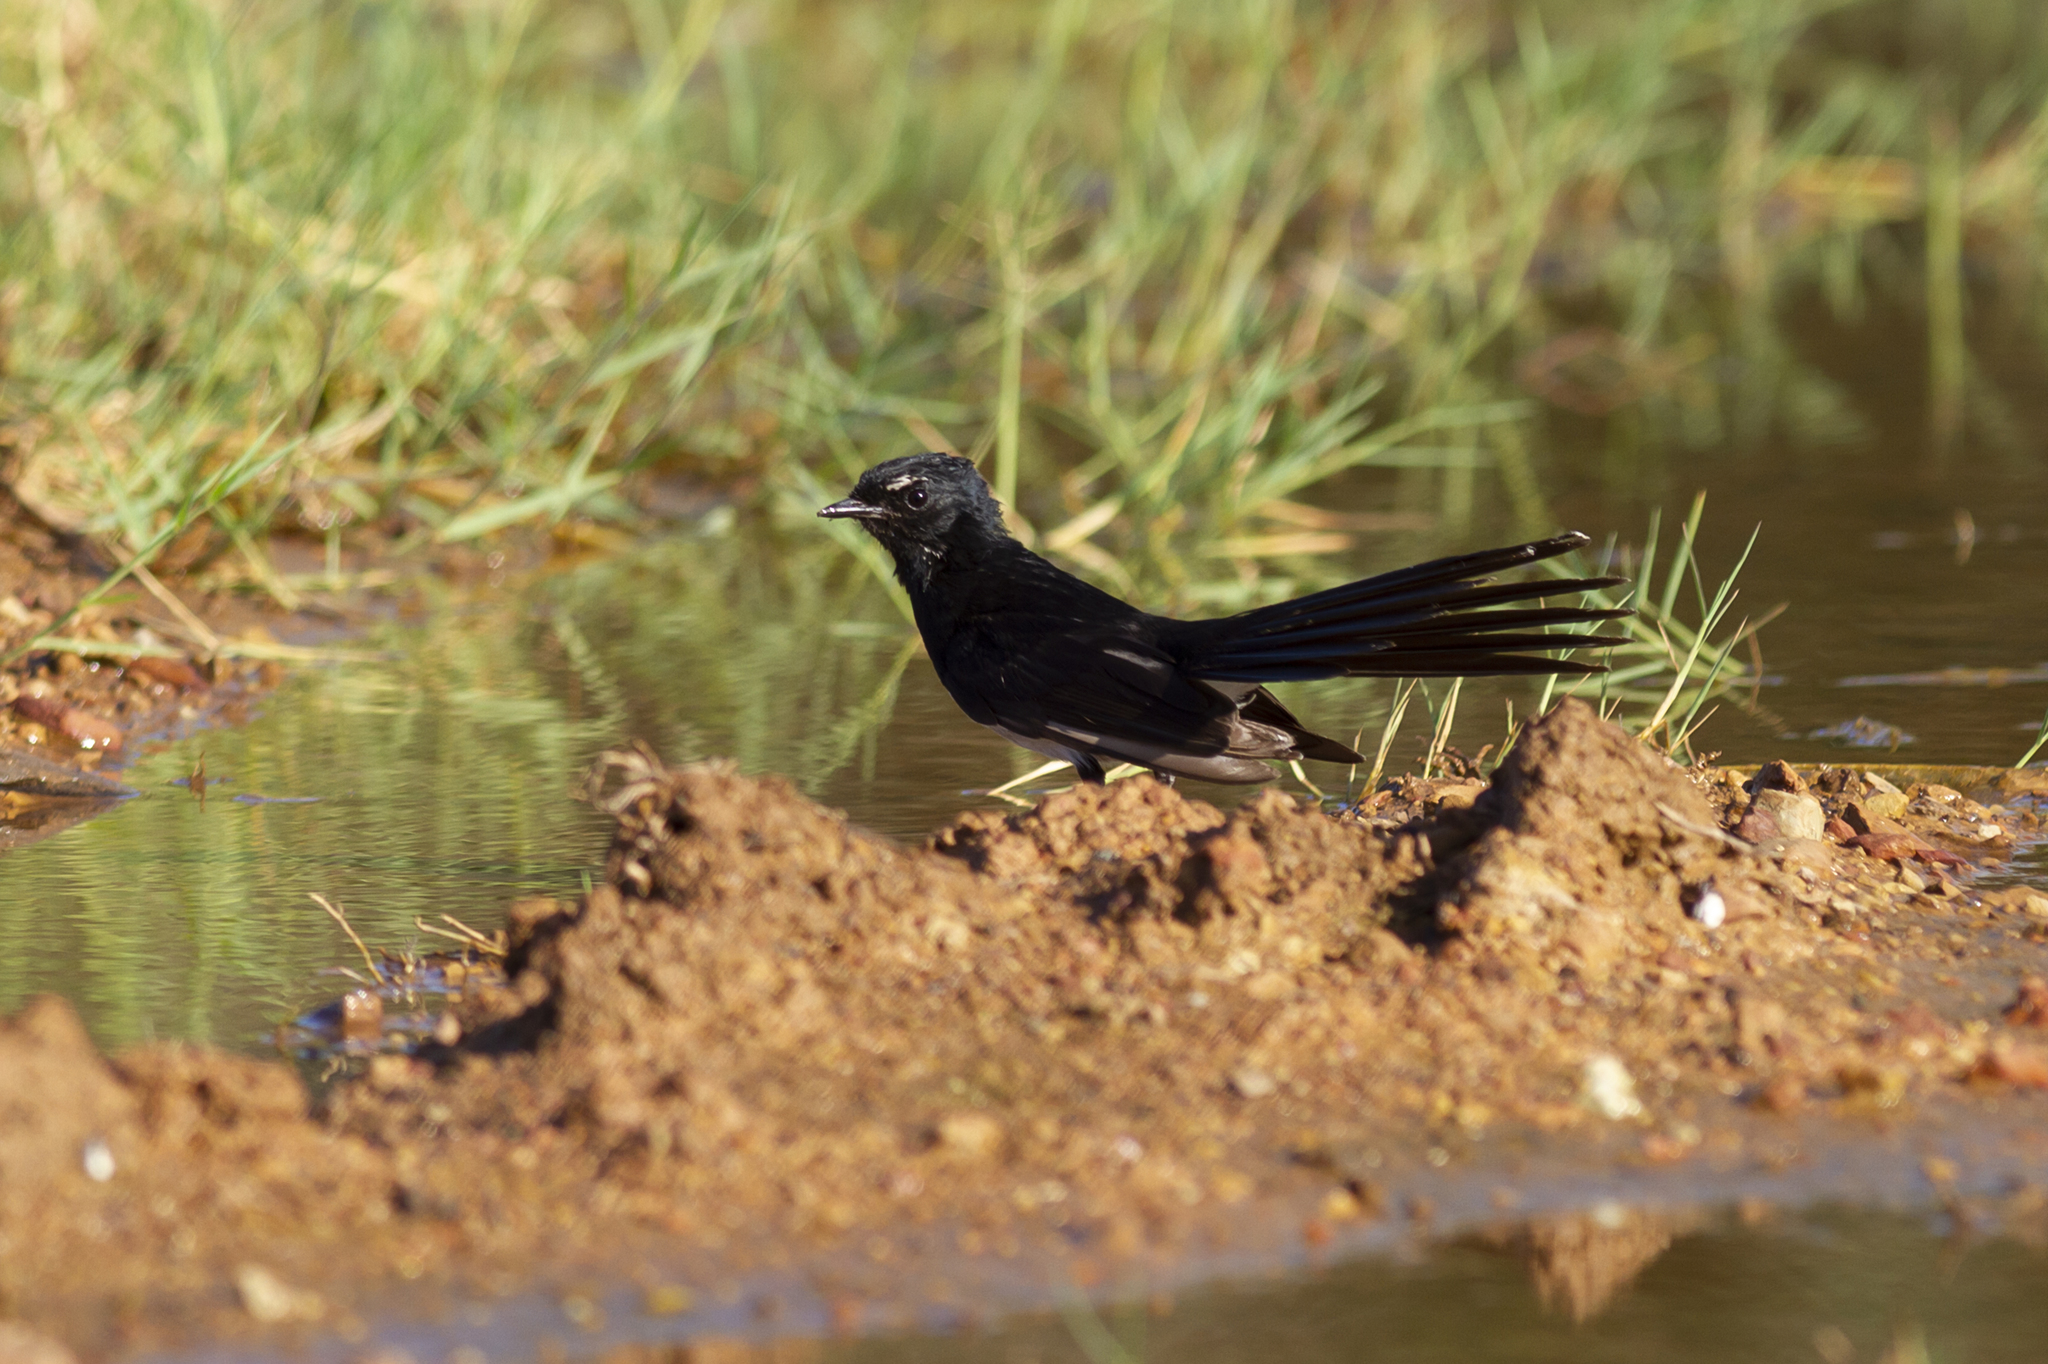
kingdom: Animalia
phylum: Chordata
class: Aves
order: Passeriformes
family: Rhipiduridae
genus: Rhipidura
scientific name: Rhipidura leucophrys
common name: Willie wagtail
